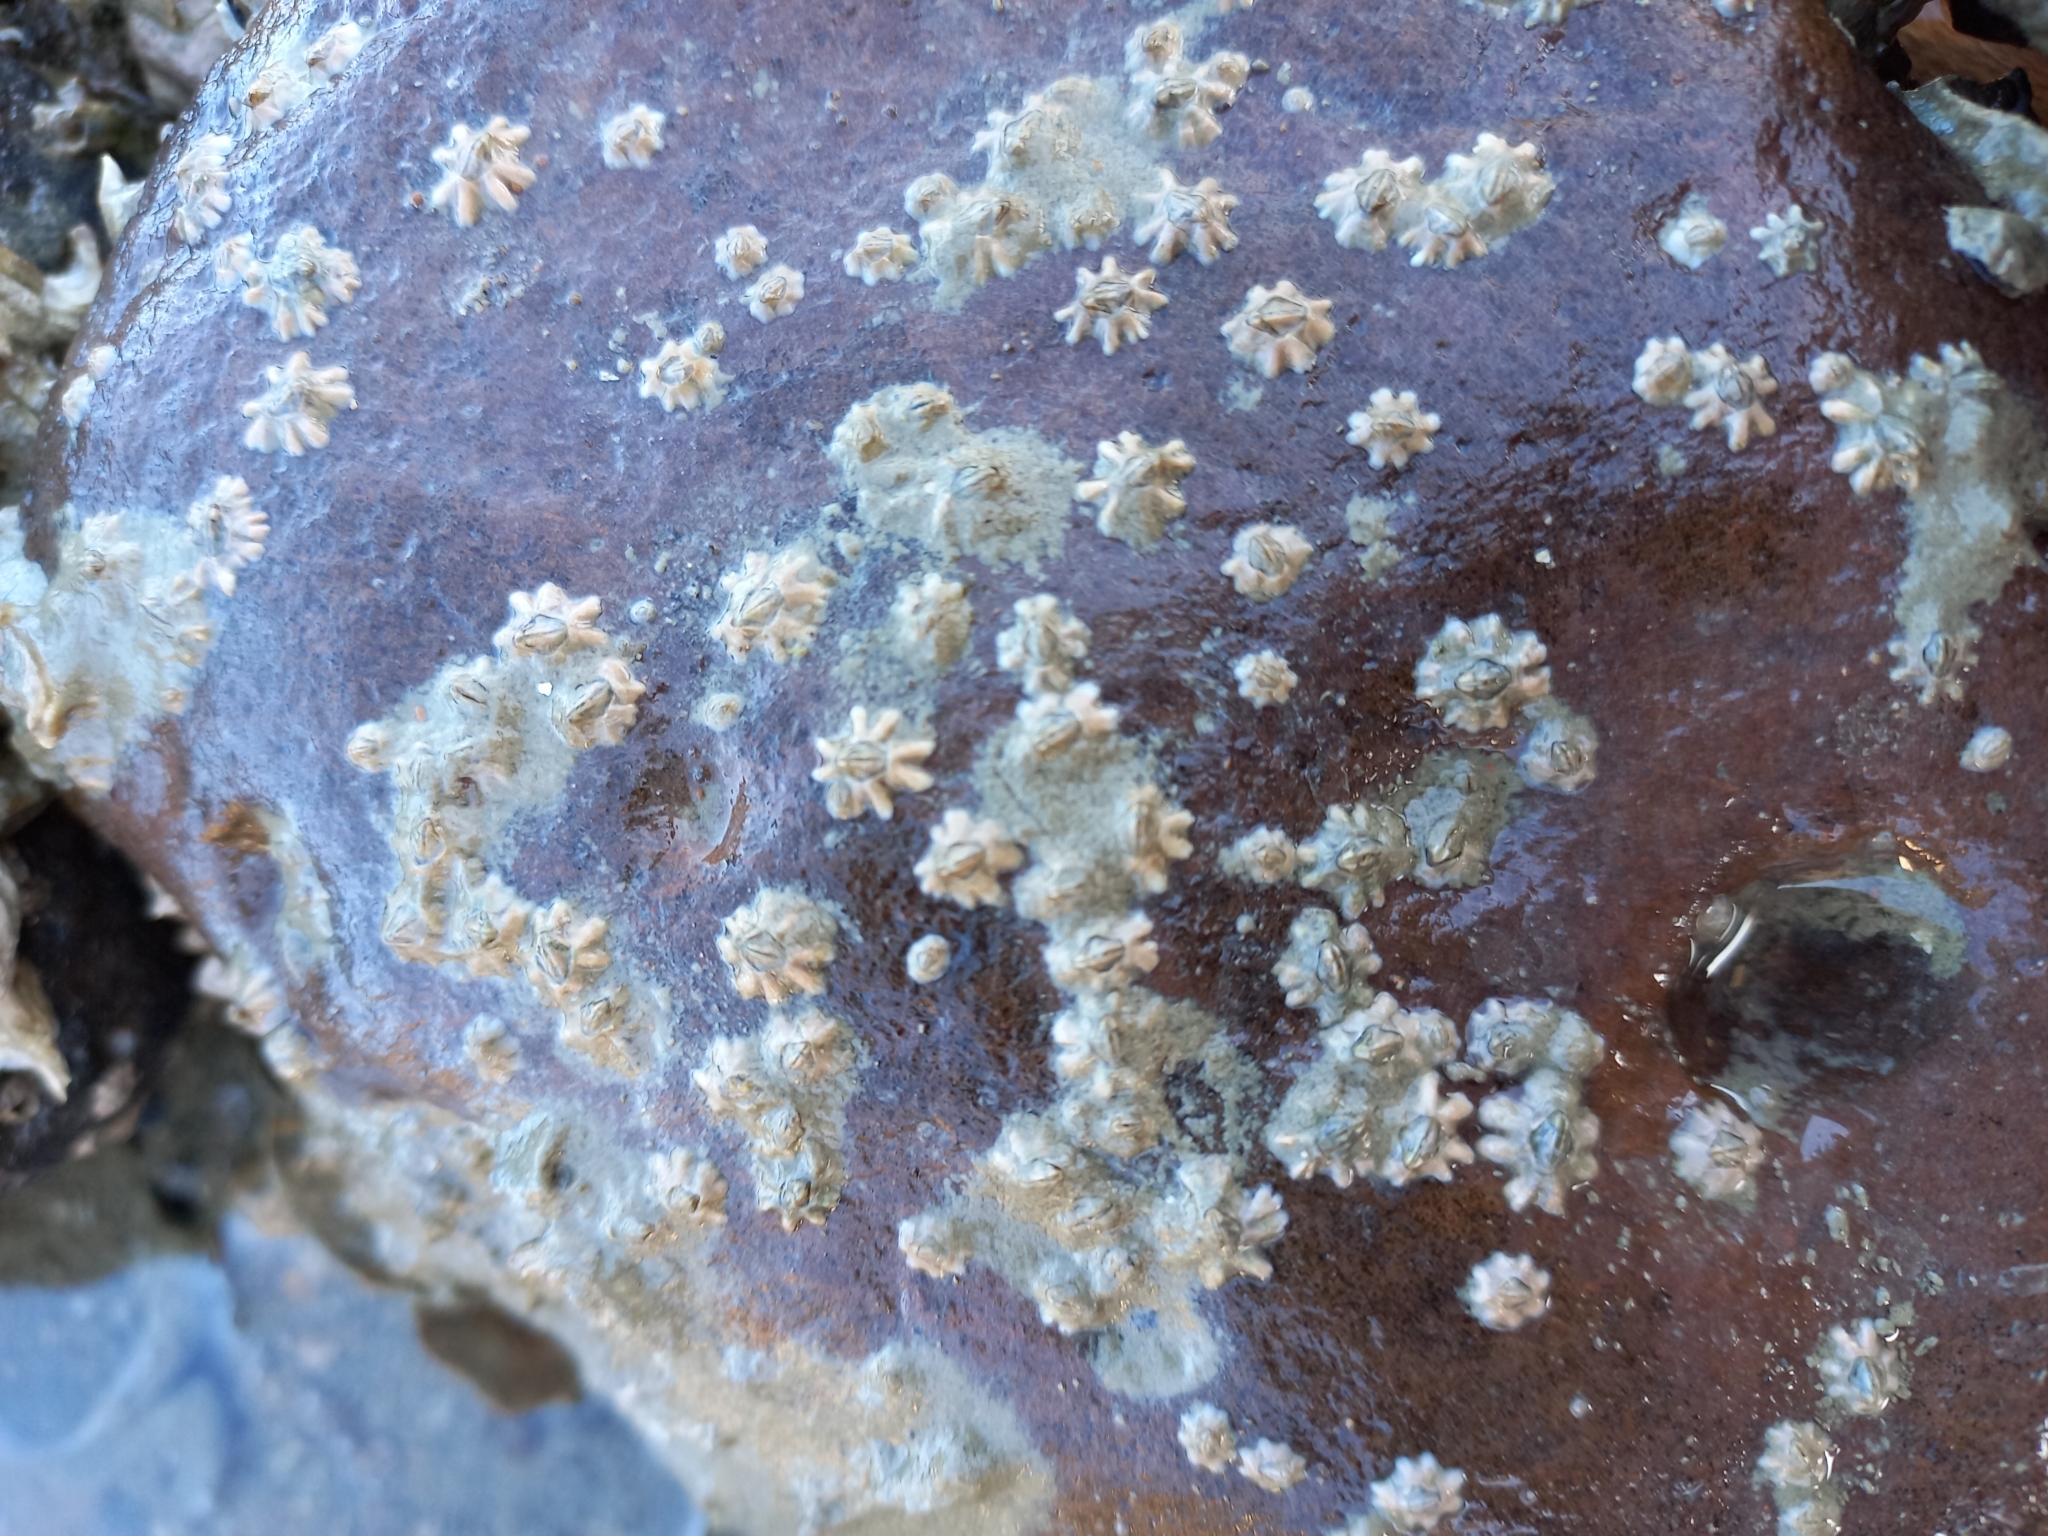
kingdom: Animalia
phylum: Arthropoda
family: Elminiidae
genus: Austrominius
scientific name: Austrominius modestus
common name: Australasian barnacle
